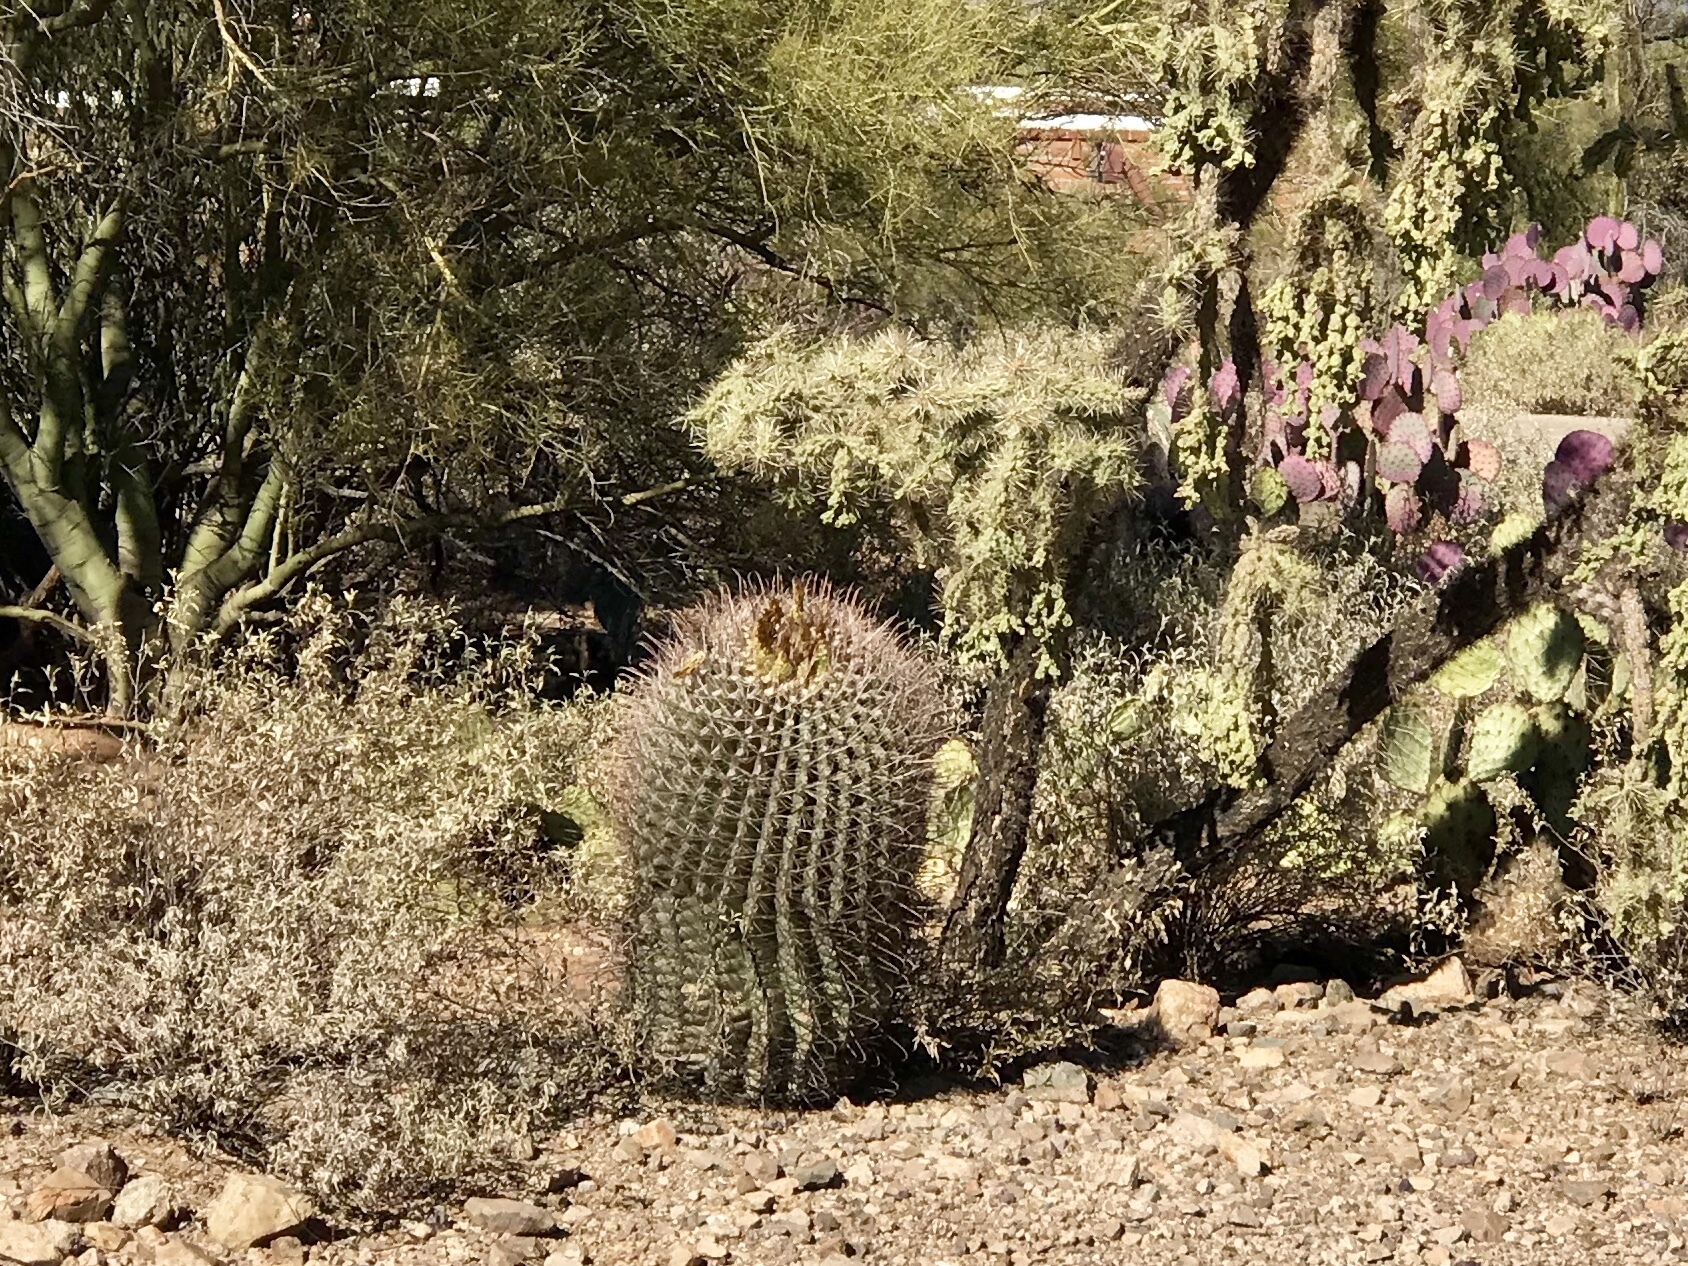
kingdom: Plantae
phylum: Tracheophyta
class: Magnoliopsida
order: Caryophyllales
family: Cactaceae
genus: Ferocactus
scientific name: Ferocactus wislizeni
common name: Candy barrel cactus
